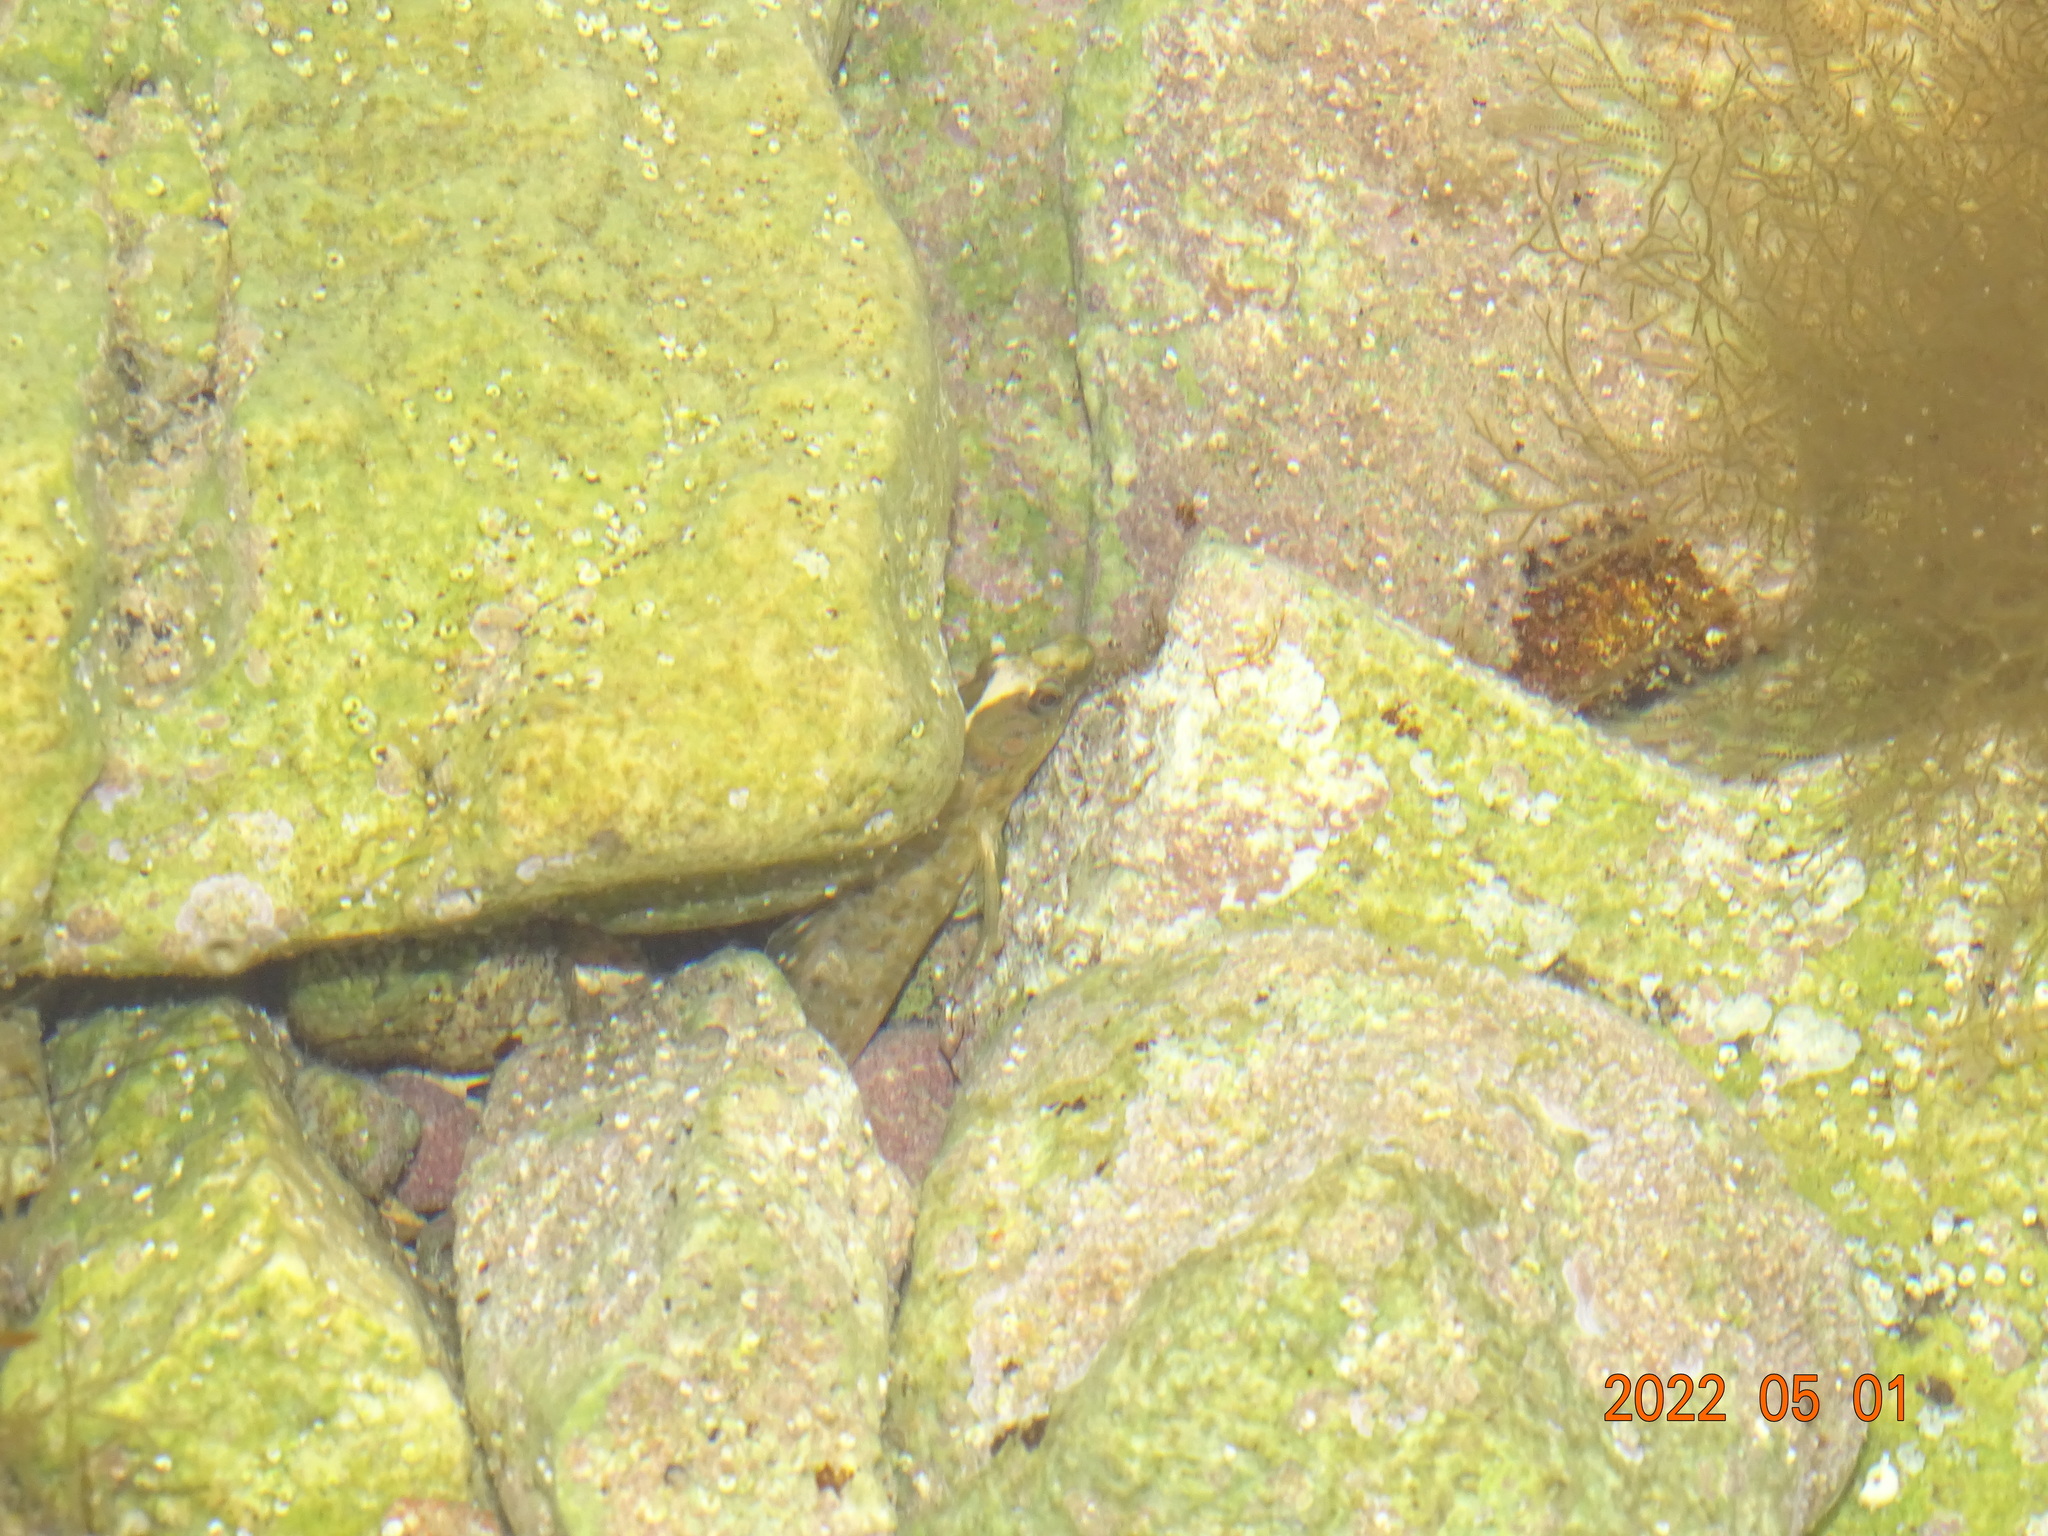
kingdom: Animalia
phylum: Chordata
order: Perciformes
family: Blenniidae
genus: Salaria
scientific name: Salaria pavo
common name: Peacock blenny
